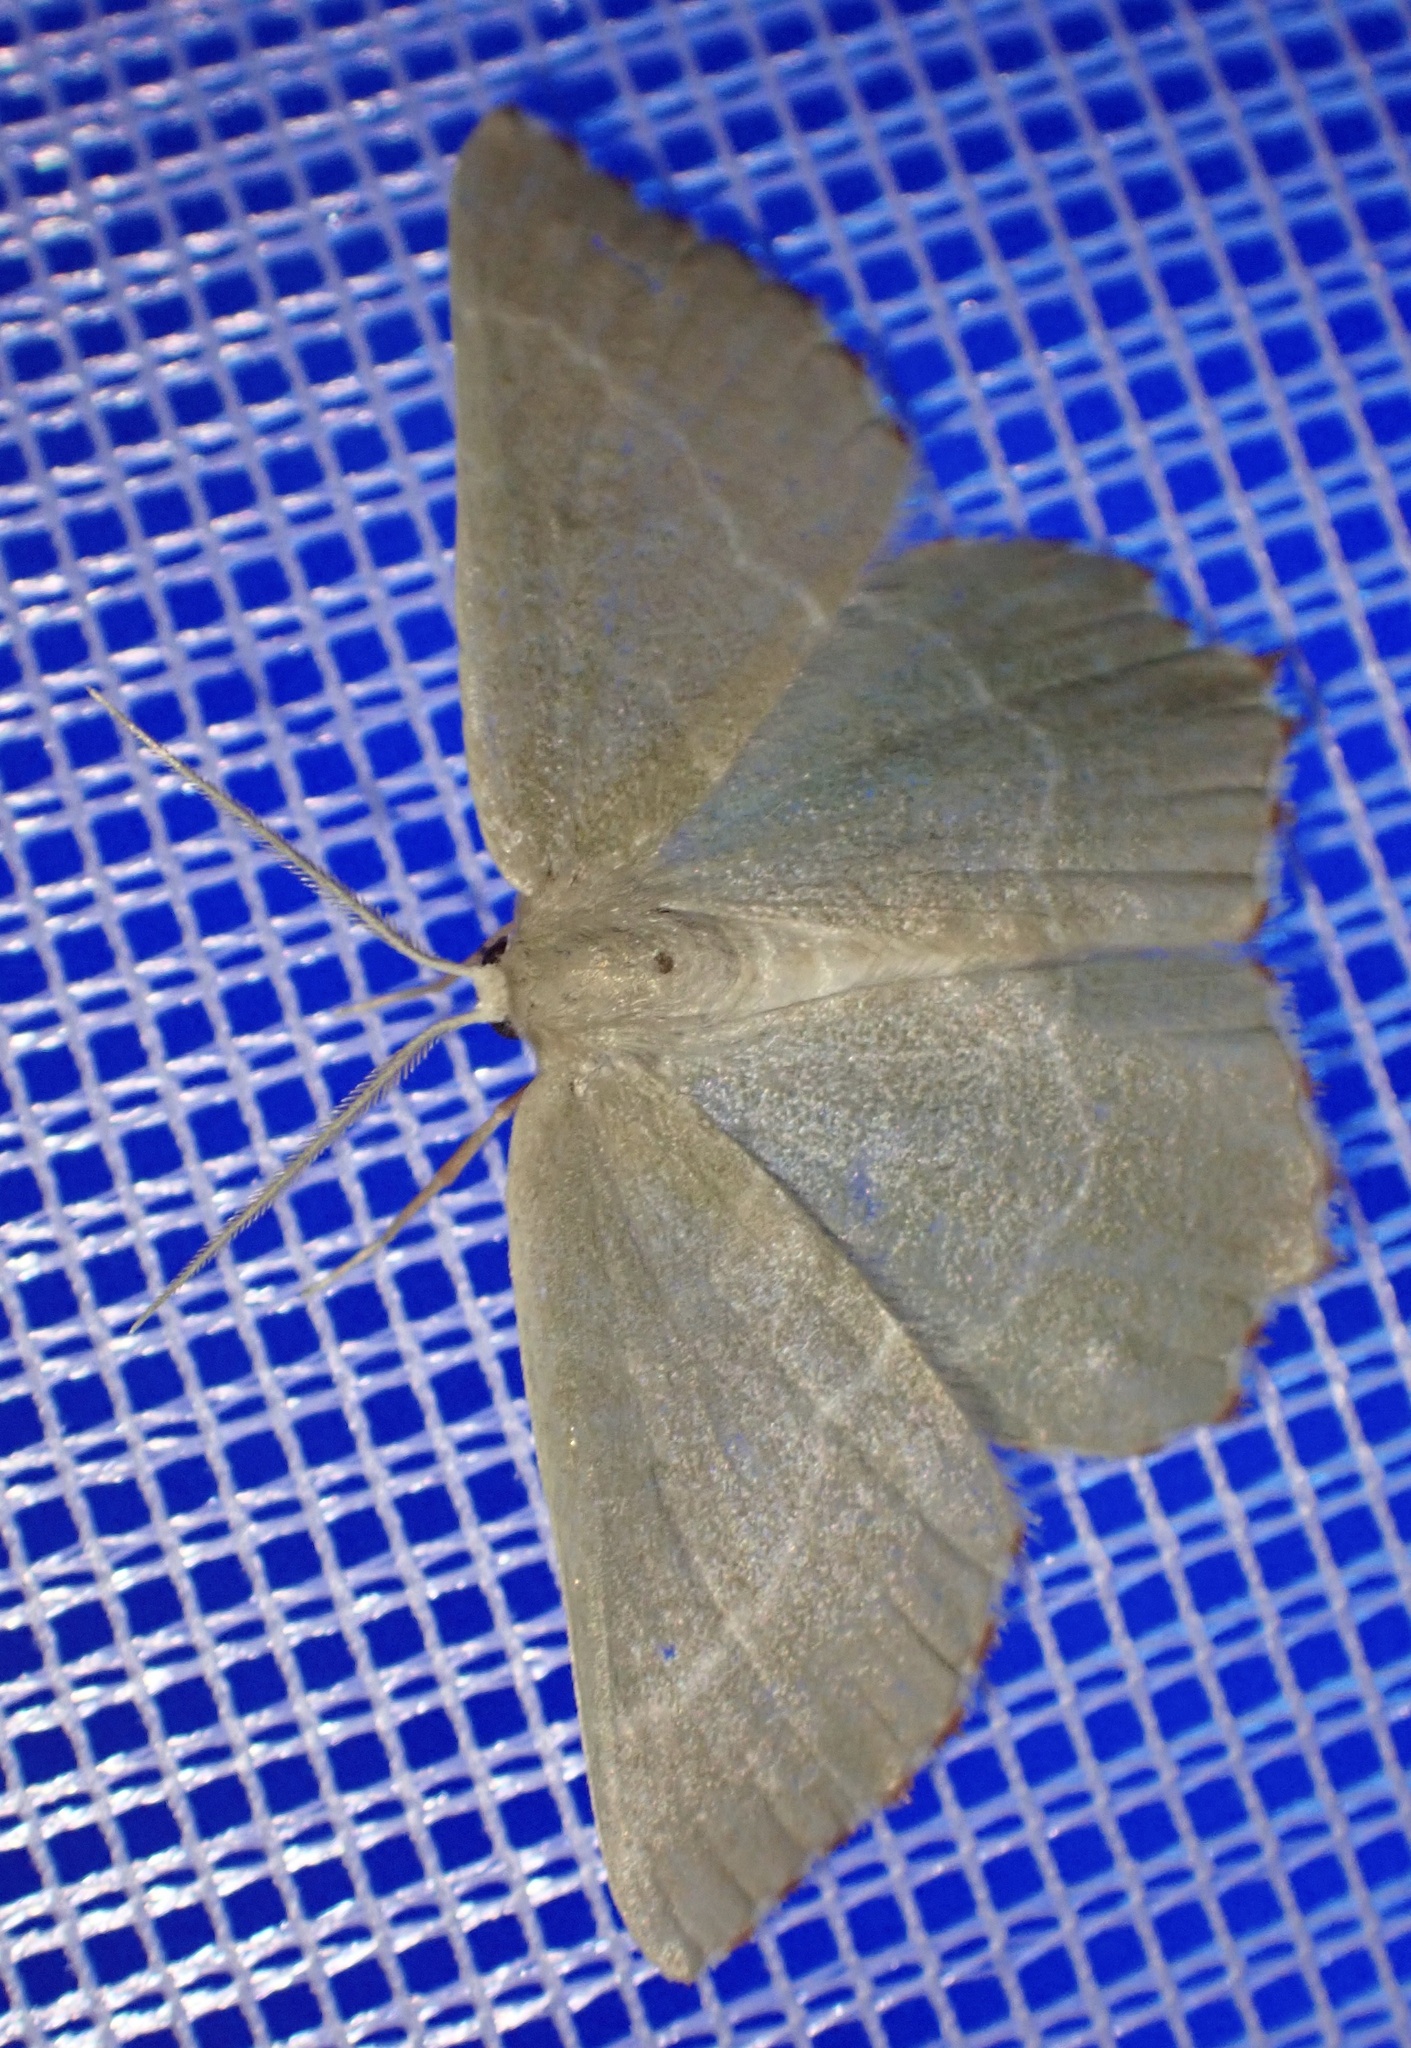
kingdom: Animalia
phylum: Arthropoda
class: Insecta
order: Lepidoptera
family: Geometridae
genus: Thalera
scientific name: Thalera fimbrialis
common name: Sussex emerald
